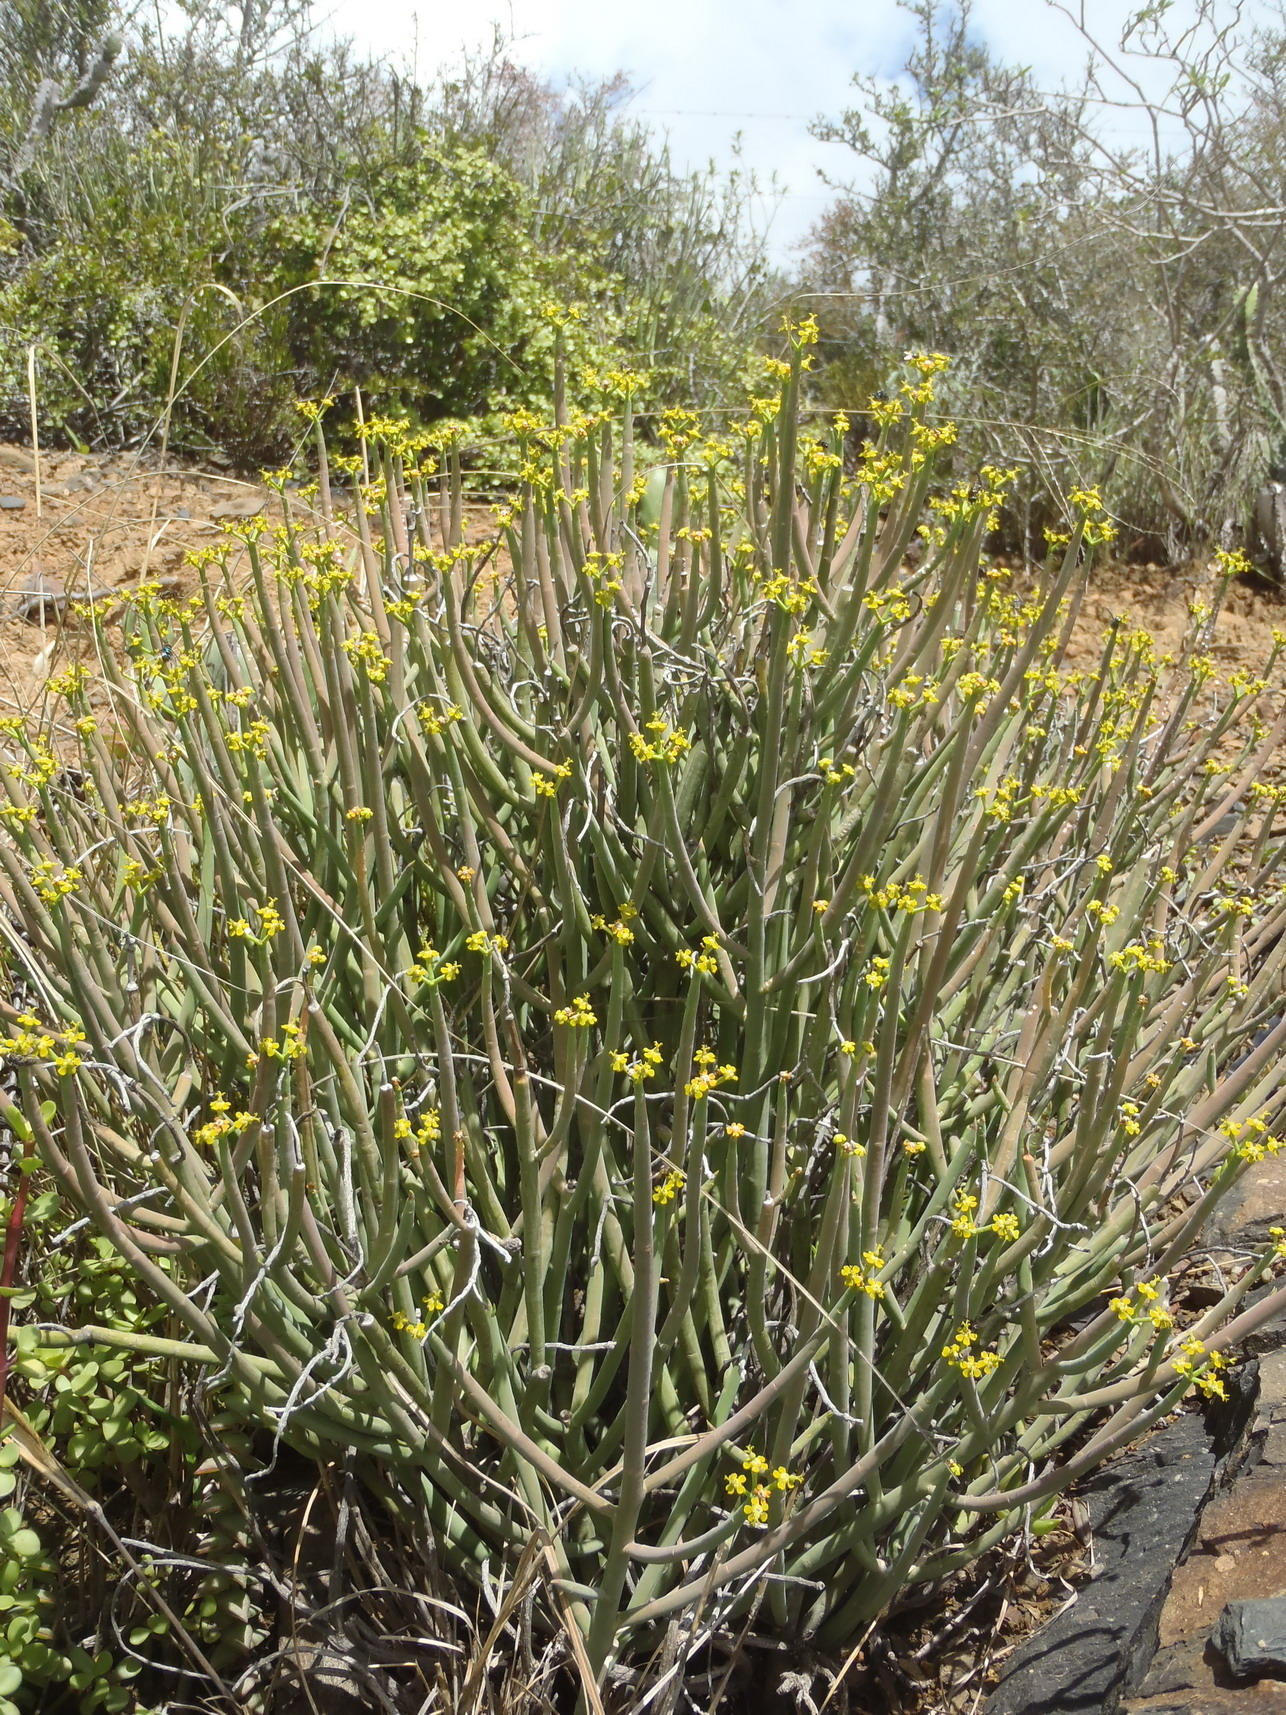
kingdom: Plantae
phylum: Tracheophyta
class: Magnoliopsida
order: Malpighiales
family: Euphorbiaceae
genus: Euphorbia
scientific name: Euphorbia mauritanica
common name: Jackal's-food
